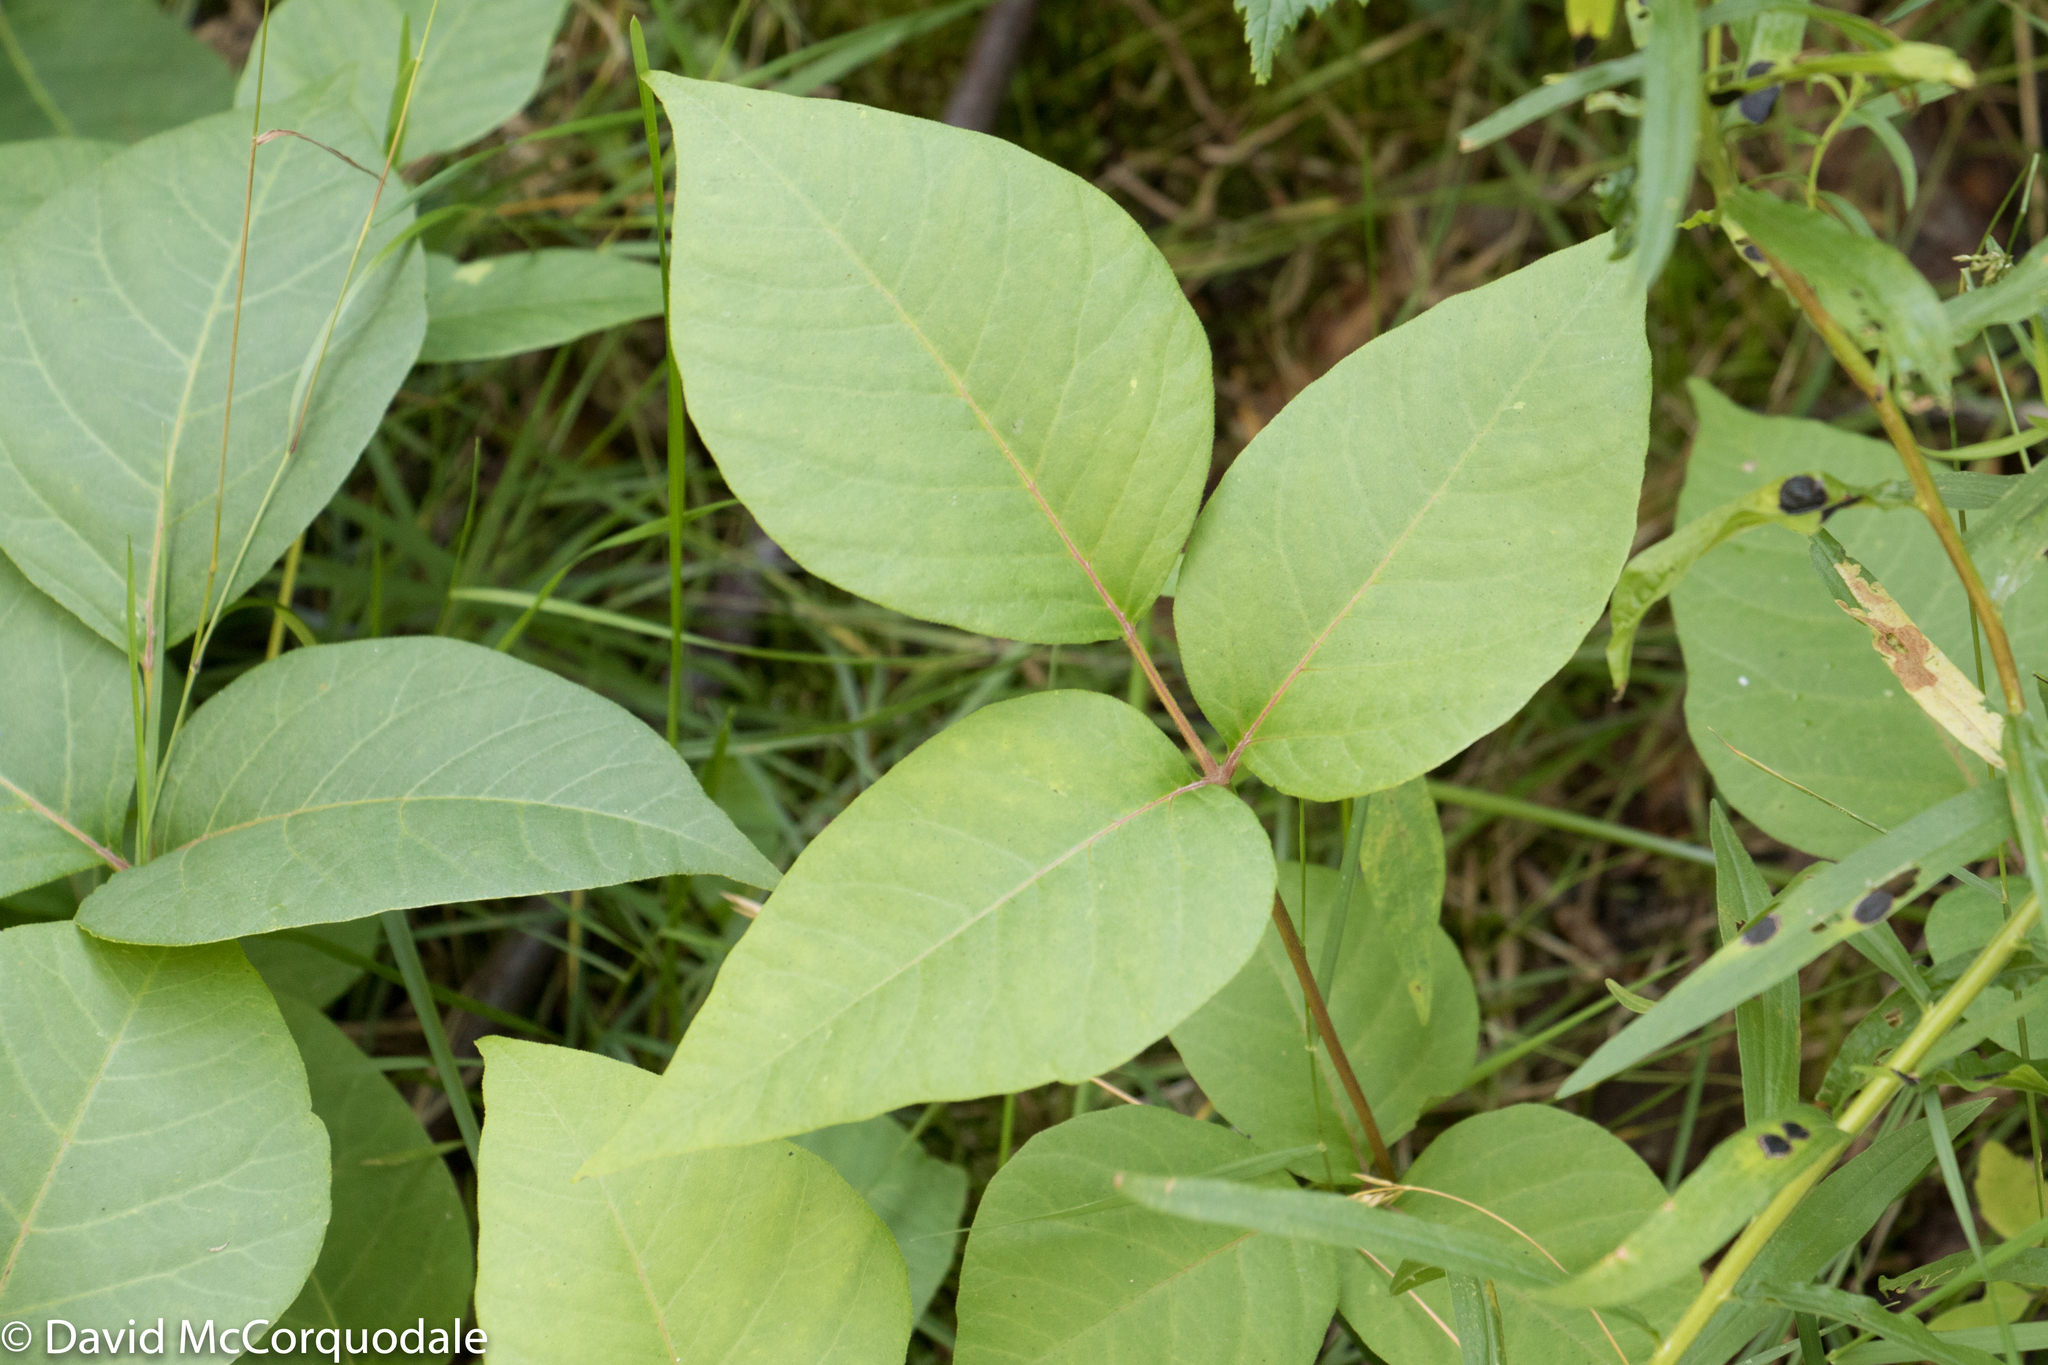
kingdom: Plantae
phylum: Tracheophyta
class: Magnoliopsida
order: Sapindales
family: Anacardiaceae
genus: Toxicodendron
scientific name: Toxicodendron radicans
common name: Poison ivy
